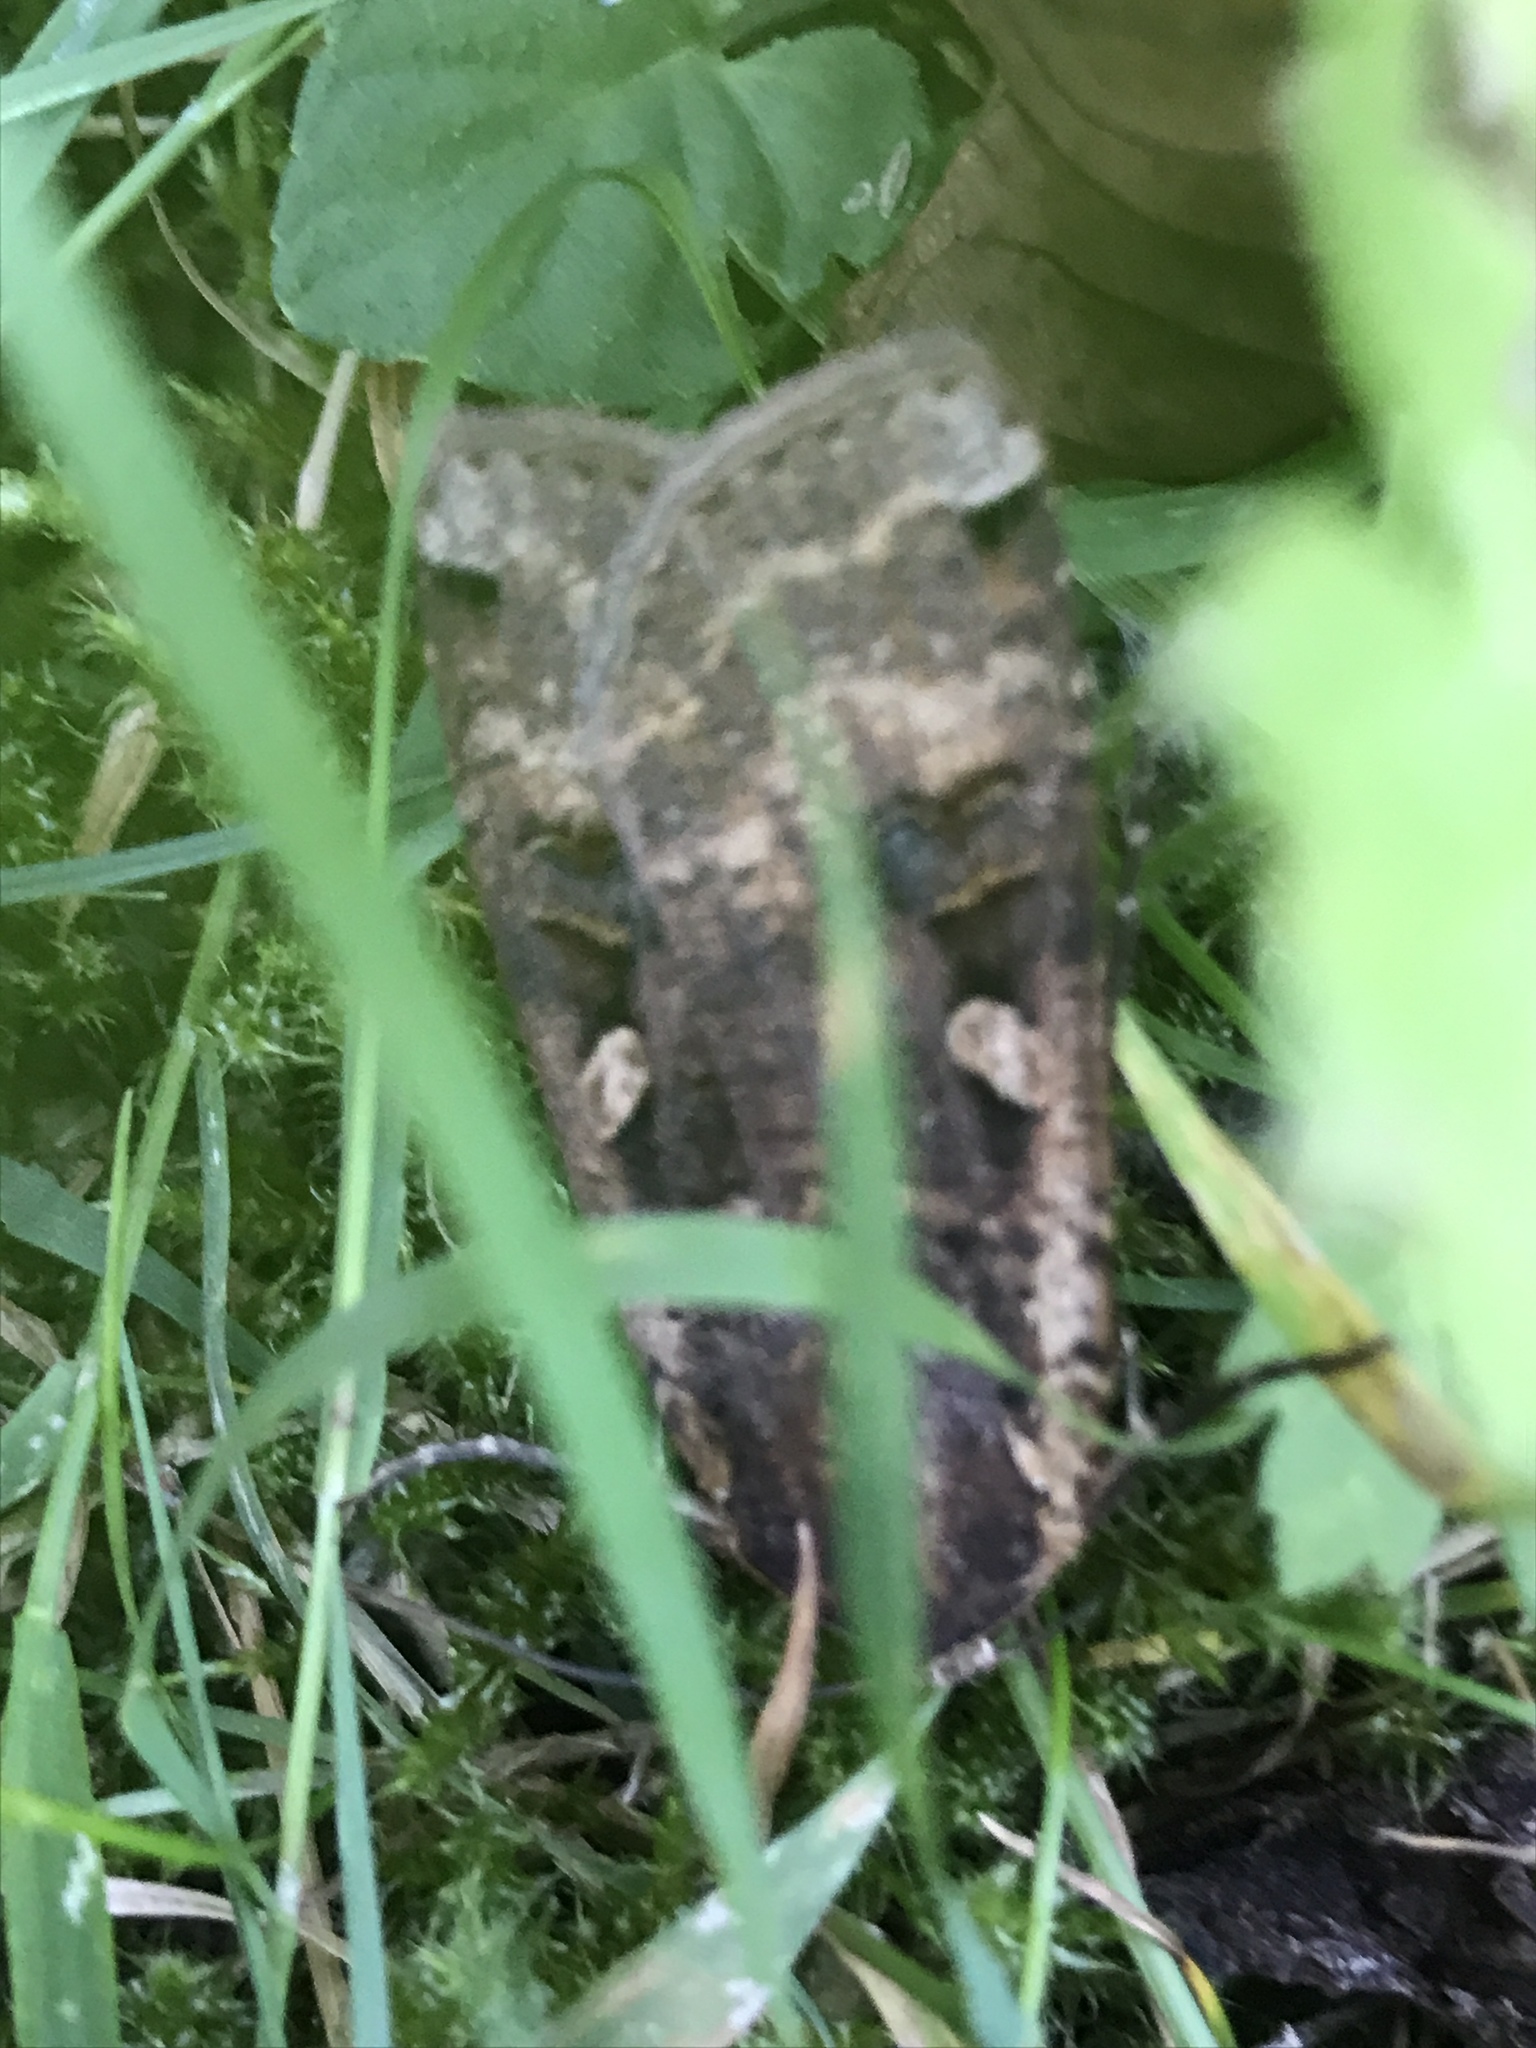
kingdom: Animalia
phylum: Arthropoda
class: Insecta
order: Lepidoptera
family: Noctuidae
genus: Noctua
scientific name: Noctua pronuba
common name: Large yellow underwing
